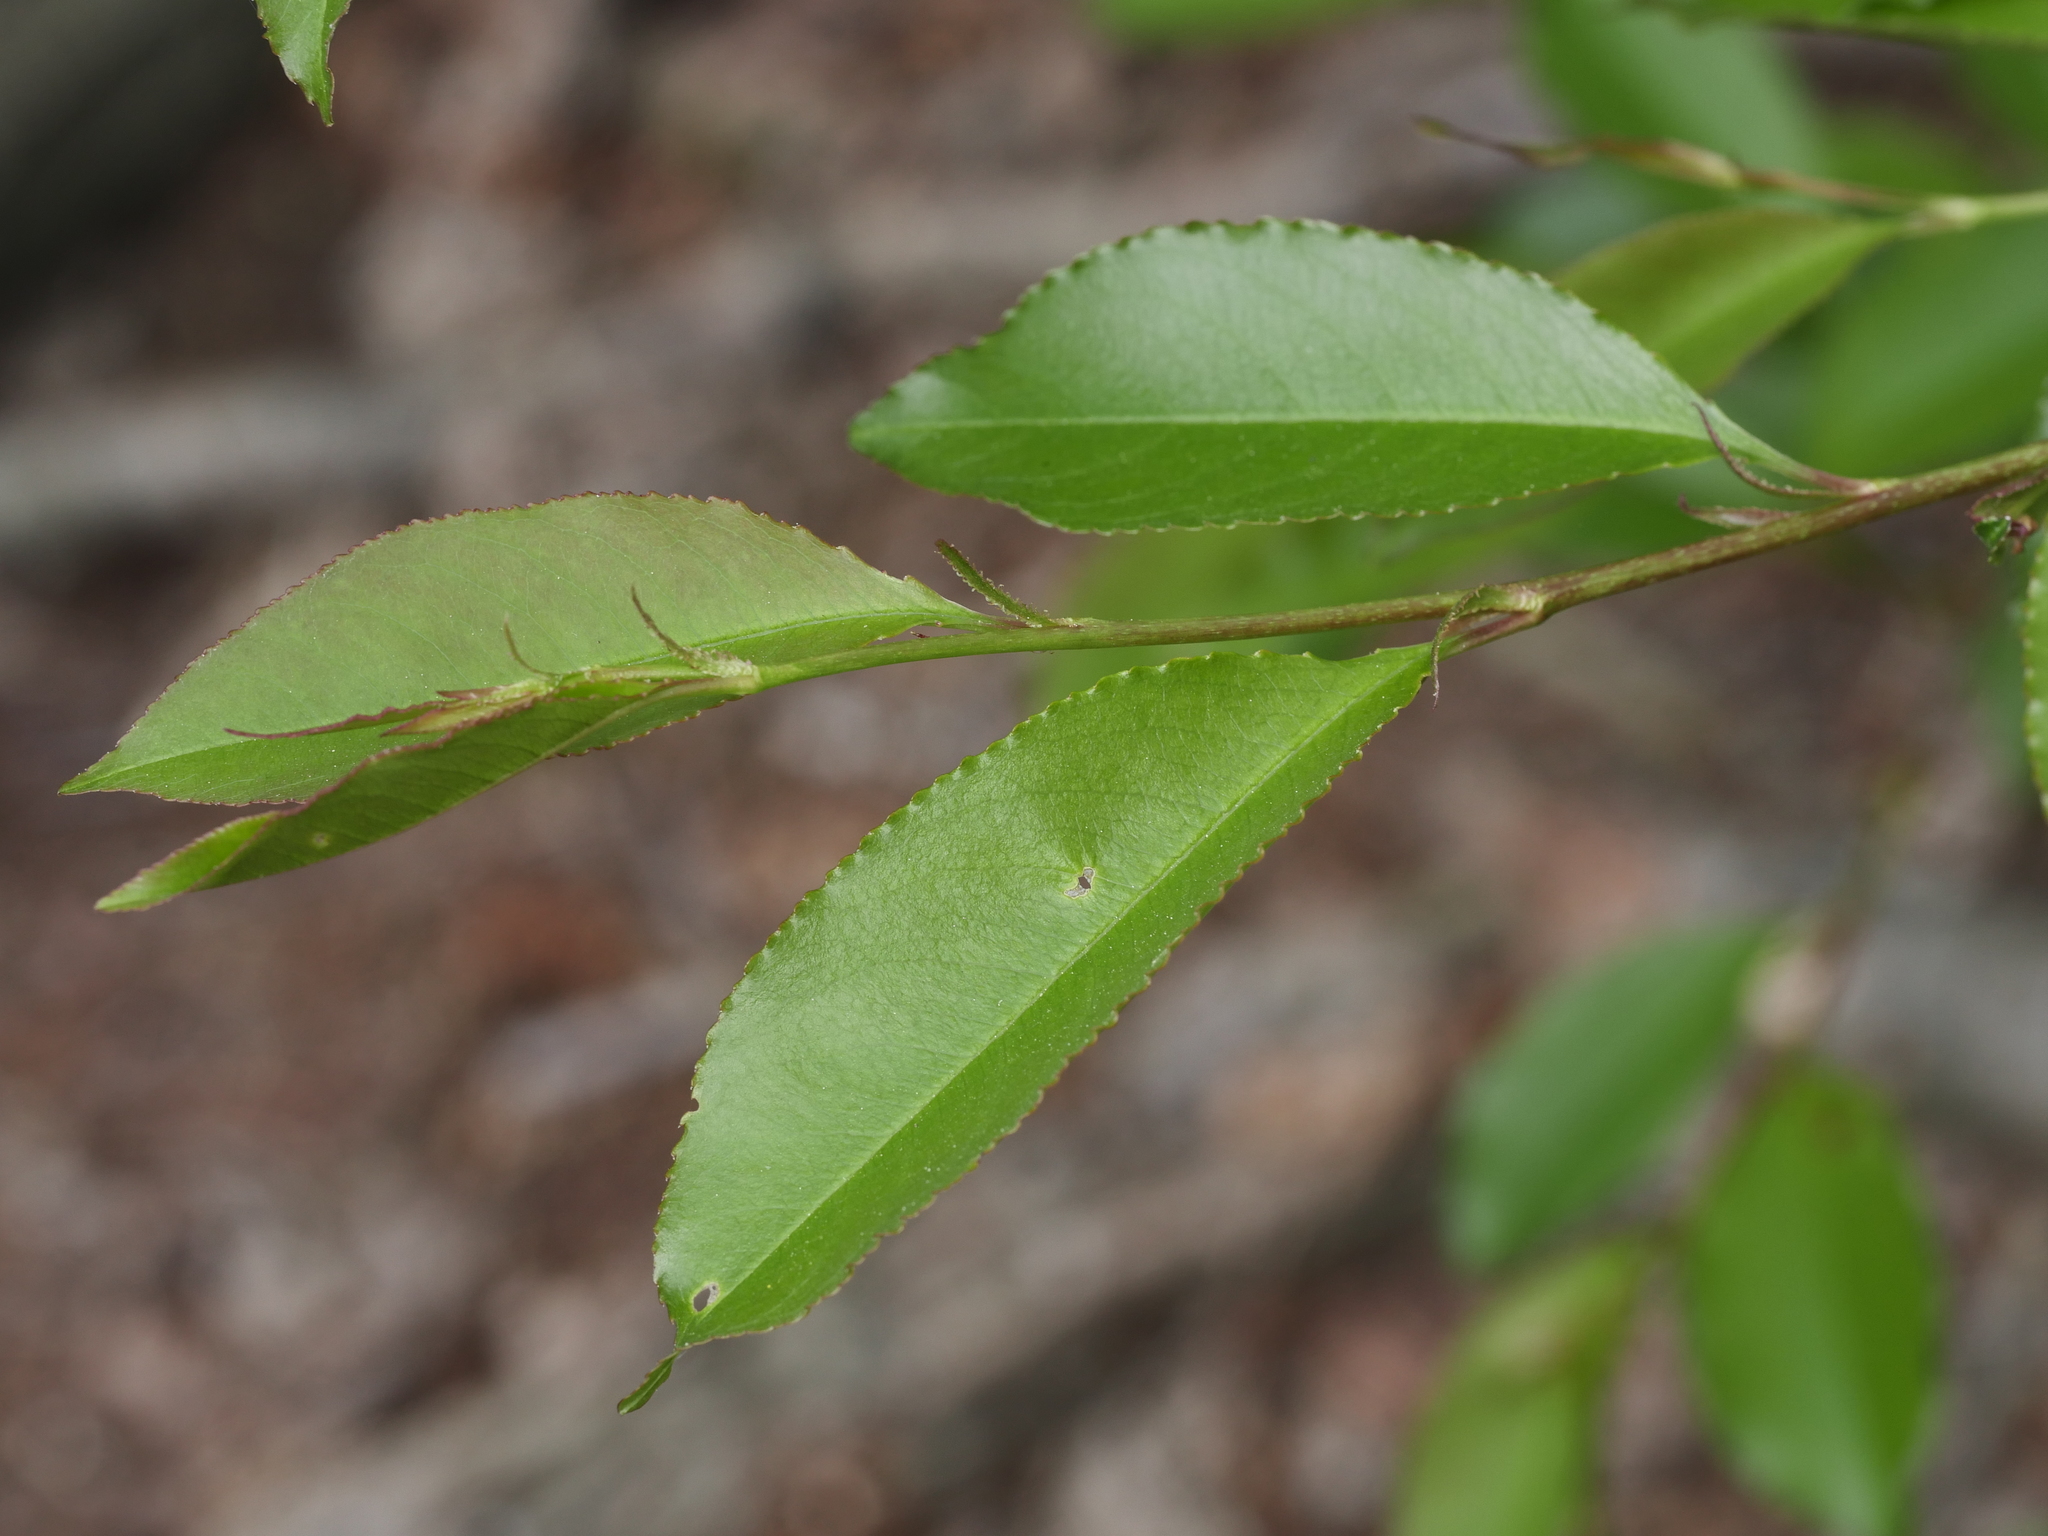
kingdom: Plantae
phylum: Tracheophyta
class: Magnoliopsida
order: Rosales
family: Rosaceae
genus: Prunus
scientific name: Prunus serotina
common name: Black cherry
